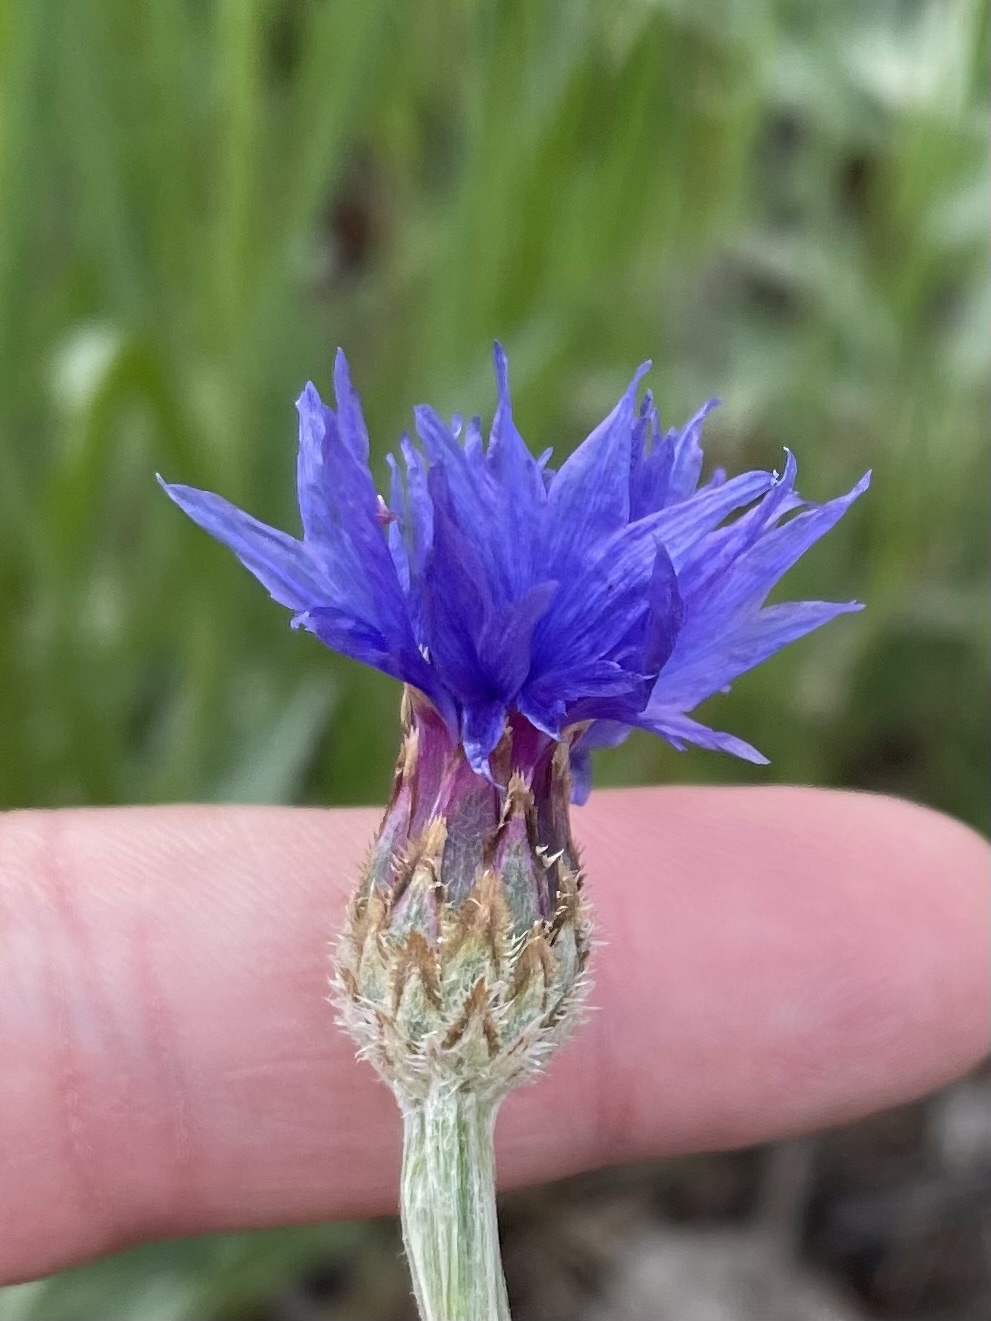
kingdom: Plantae
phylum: Tracheophyta
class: Magnoliopsida
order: Asterales
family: Asteraceae
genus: Centaurea
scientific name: Centaurea cyanus
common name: Cornflower
